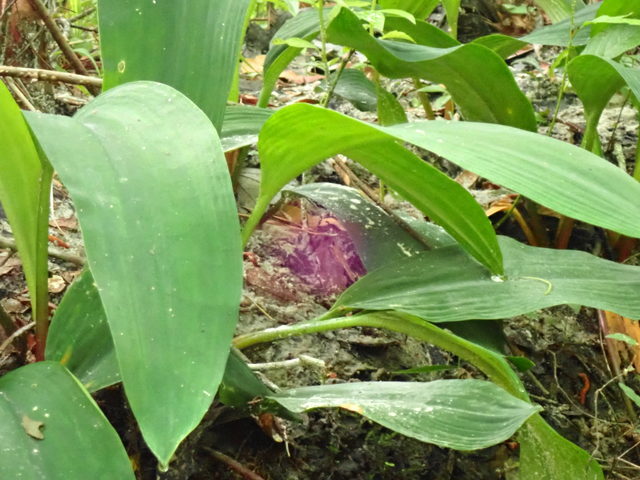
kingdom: Plantae
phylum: Tracheophyta
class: Liliopsida
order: Alismatales
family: Araceae
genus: Orontium
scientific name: Orontium aquaticum
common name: Golden-club
